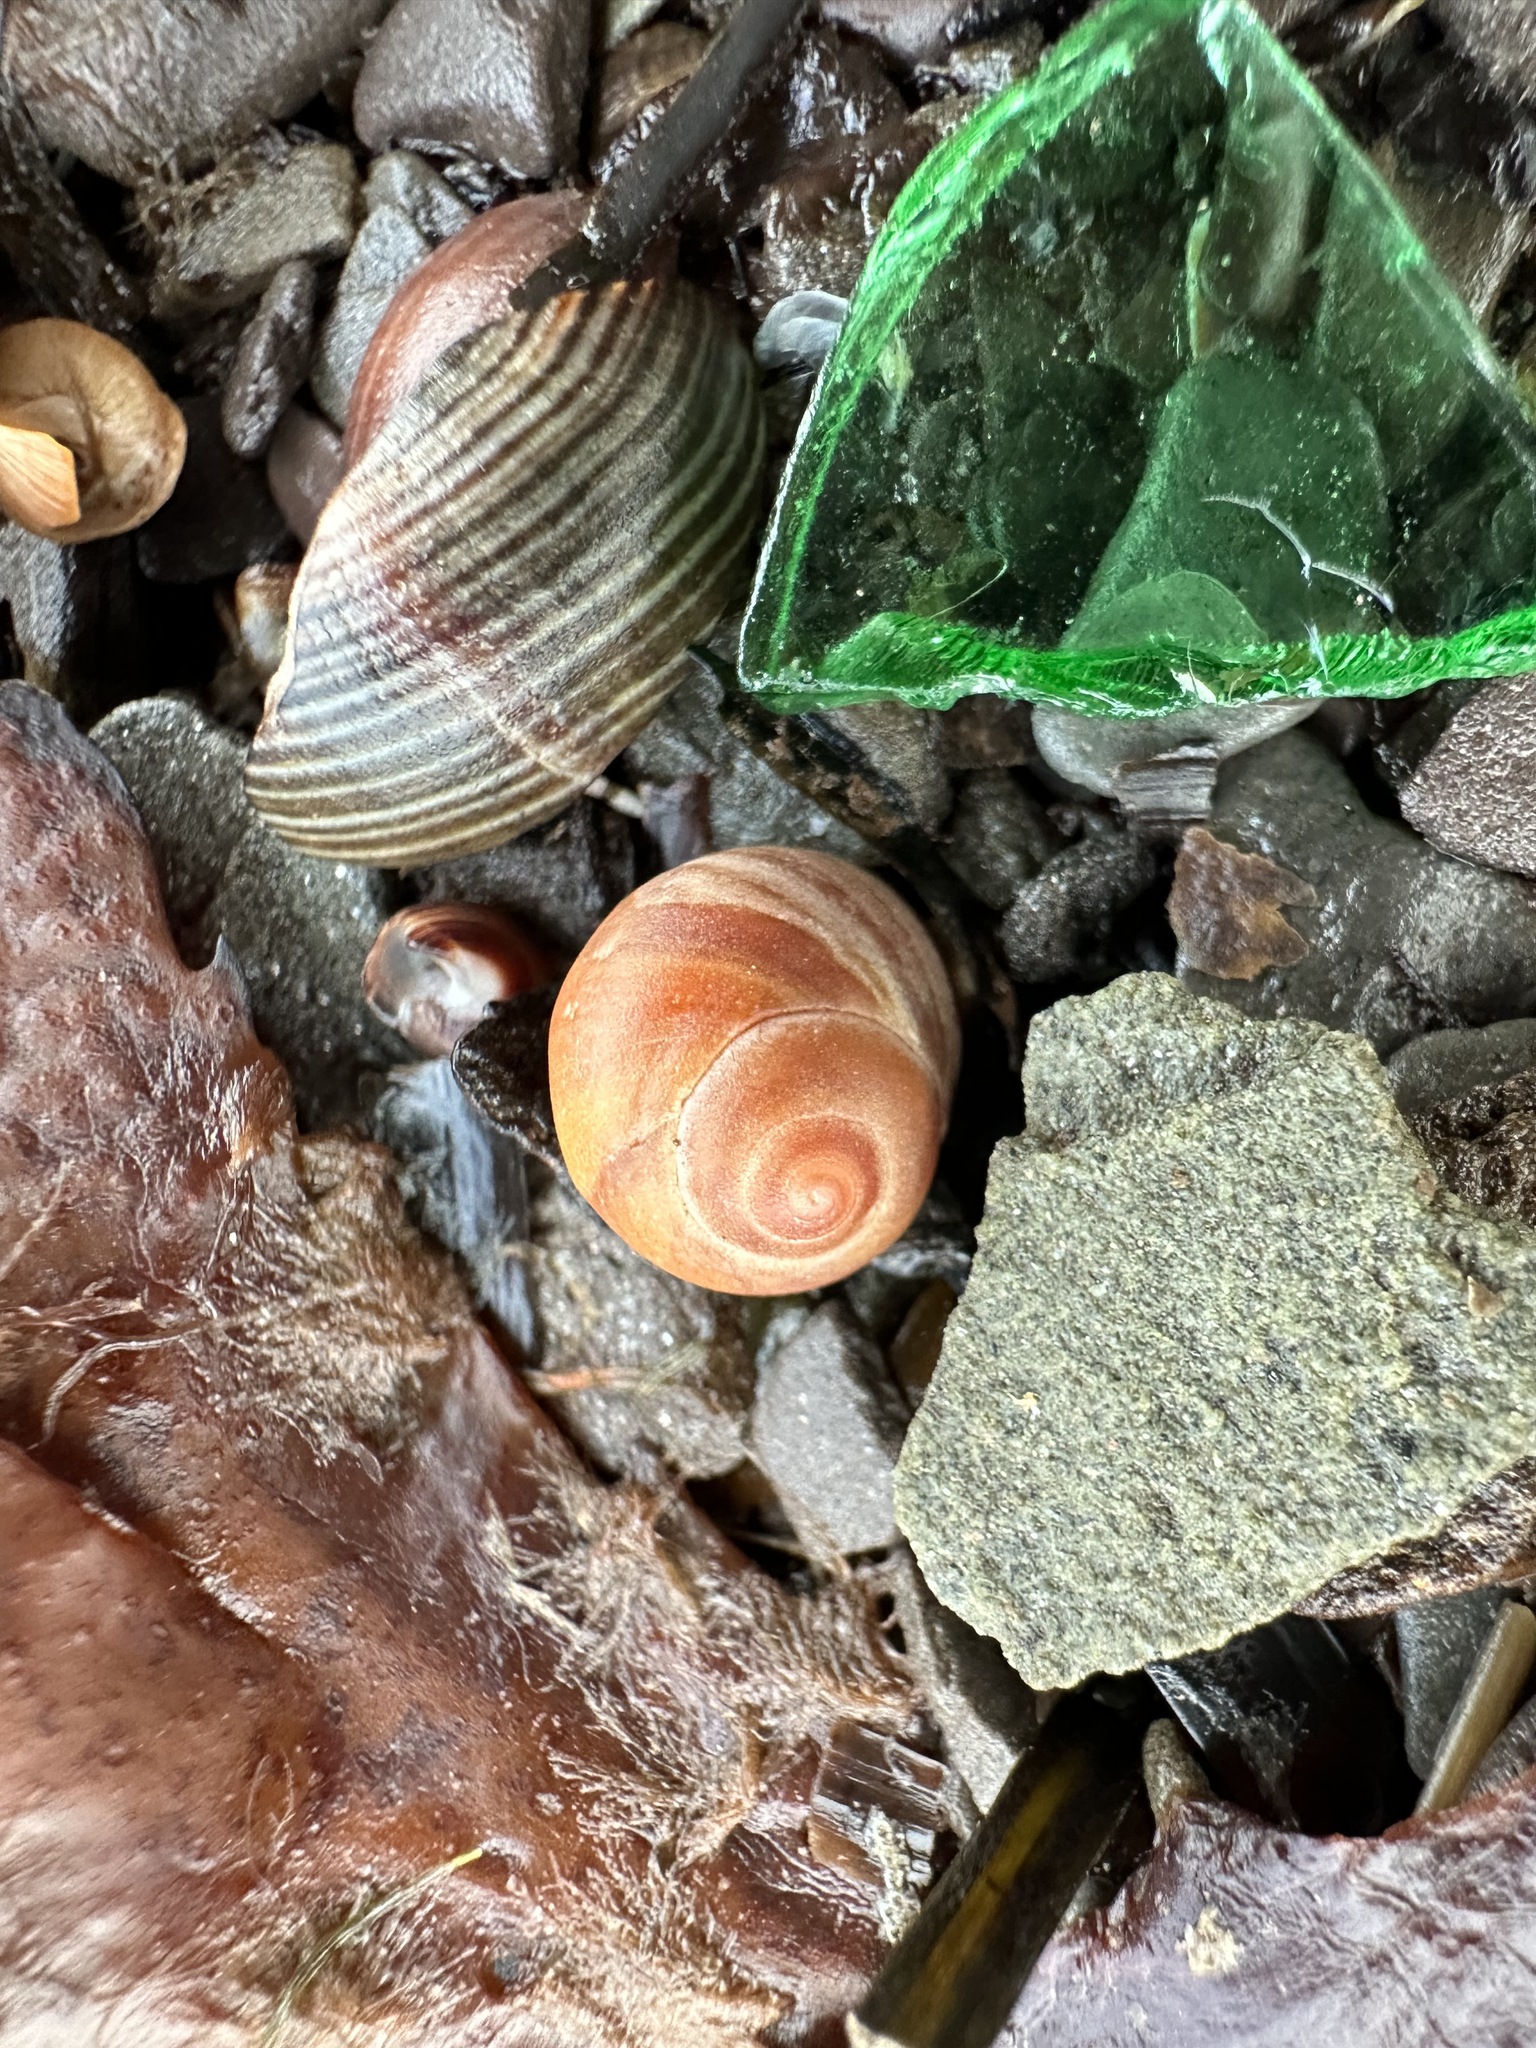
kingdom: Animalia
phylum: Mollusca
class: Gastropoda
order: Littorinimorpha
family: Littorinidae
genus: Littorina
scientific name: Littorina obtusata
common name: Flat periwinkle
